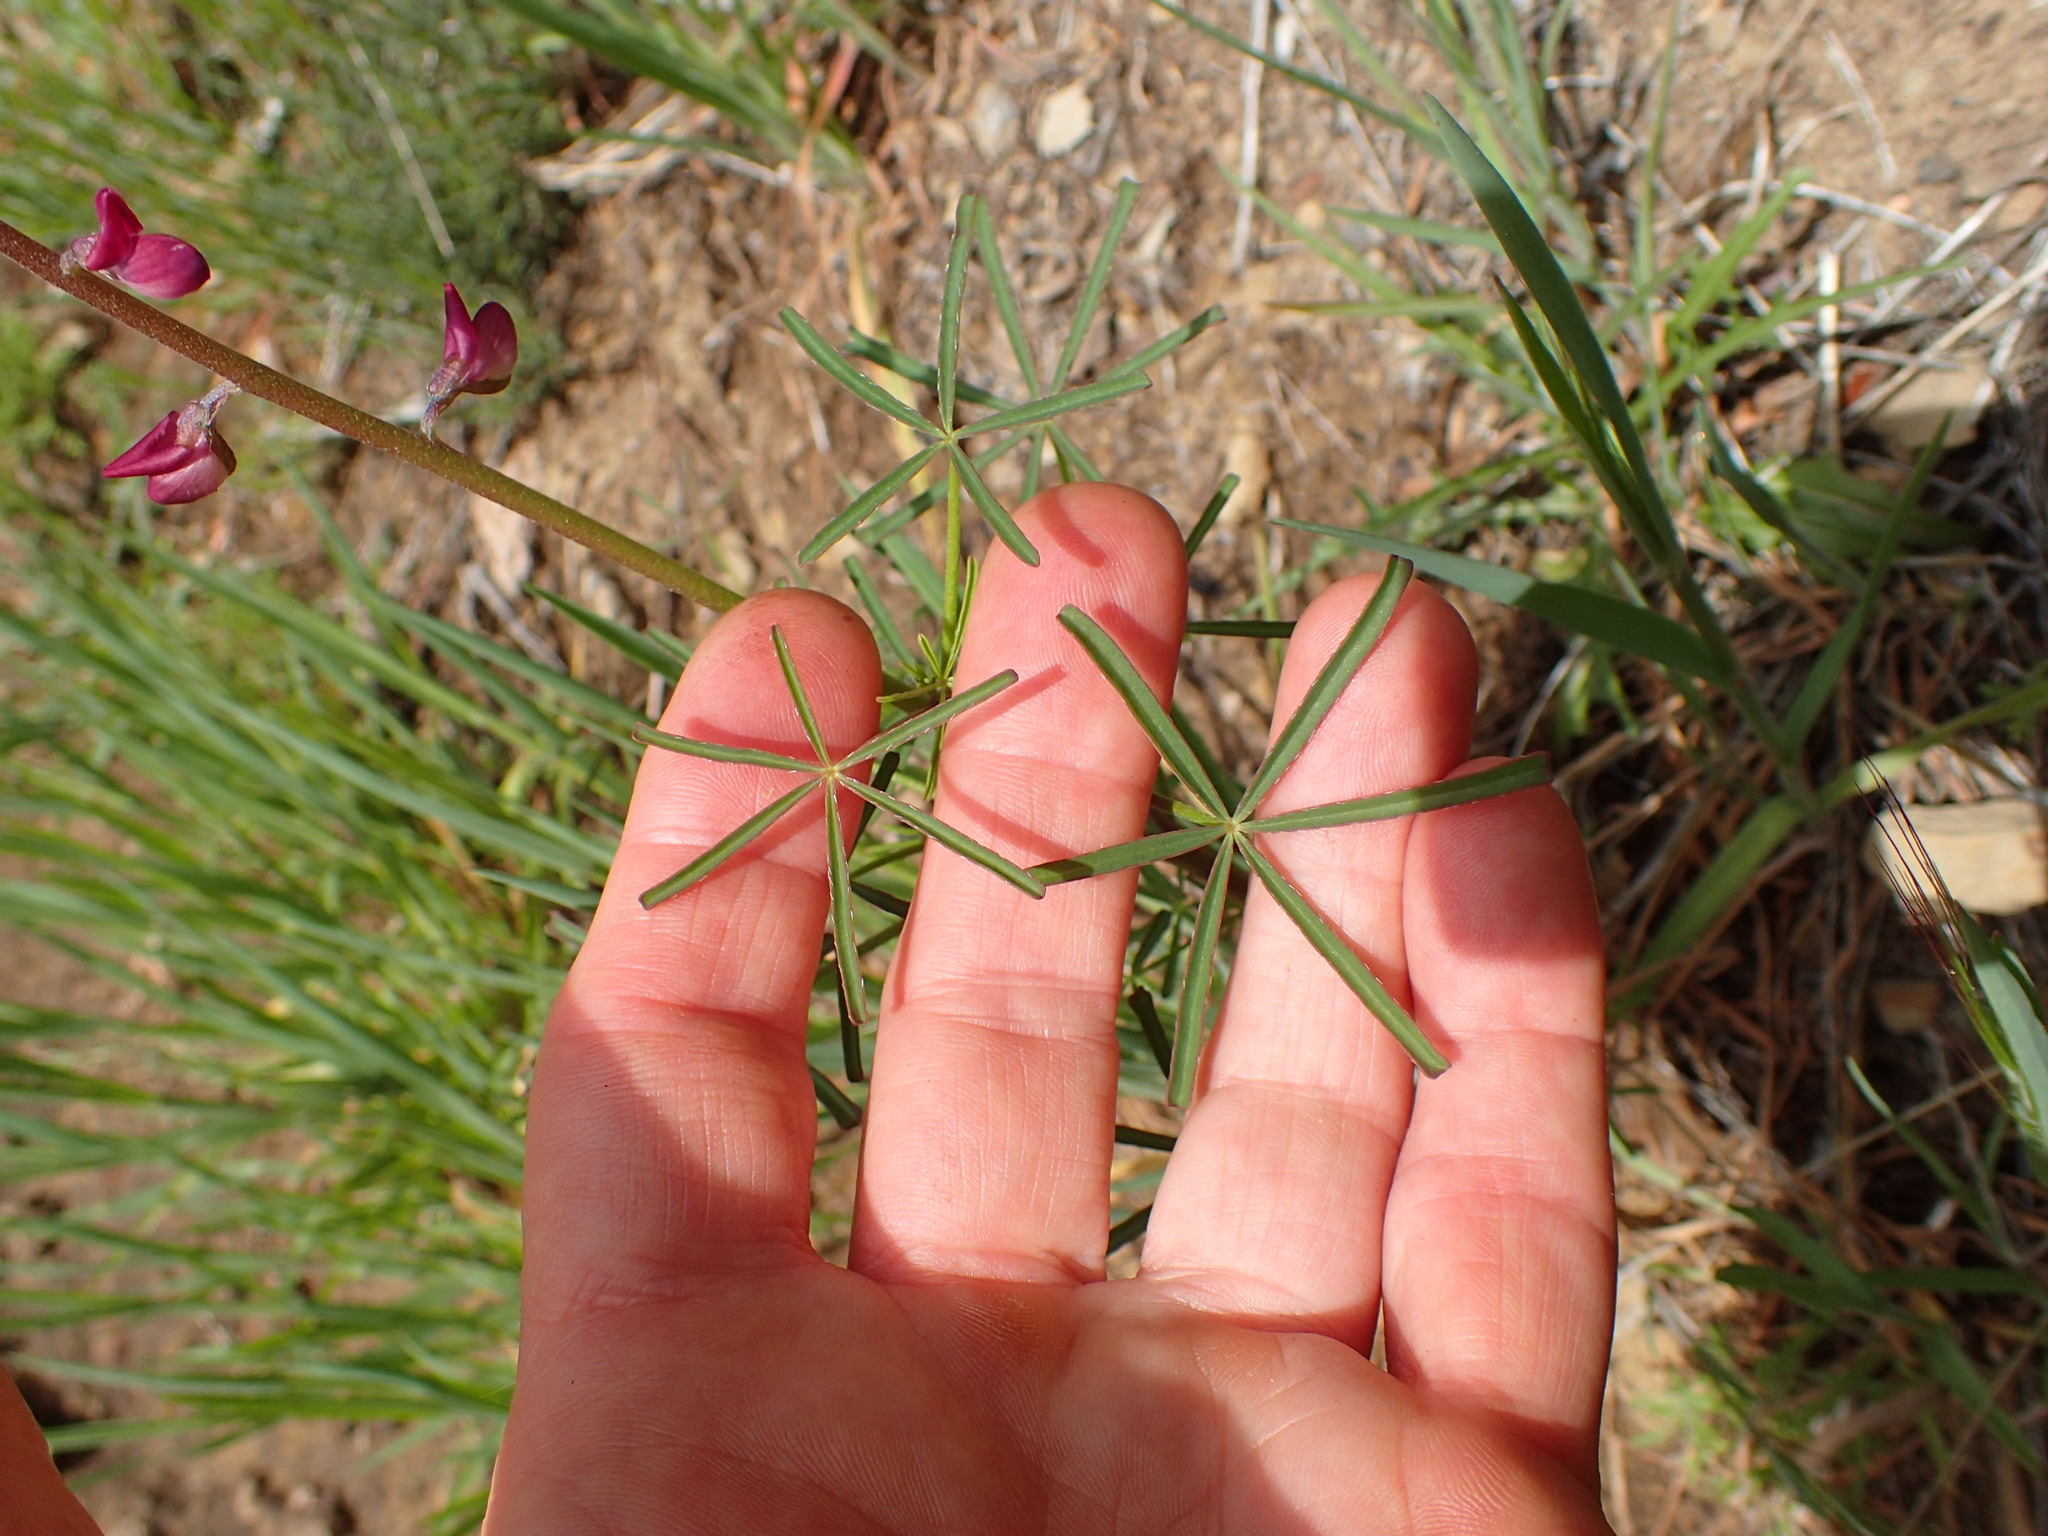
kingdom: Plantae
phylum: Tracheophyta
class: Magnoliopsida
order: Fabales
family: Fabaceae
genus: Lupinus
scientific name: Lupinus truncatus
